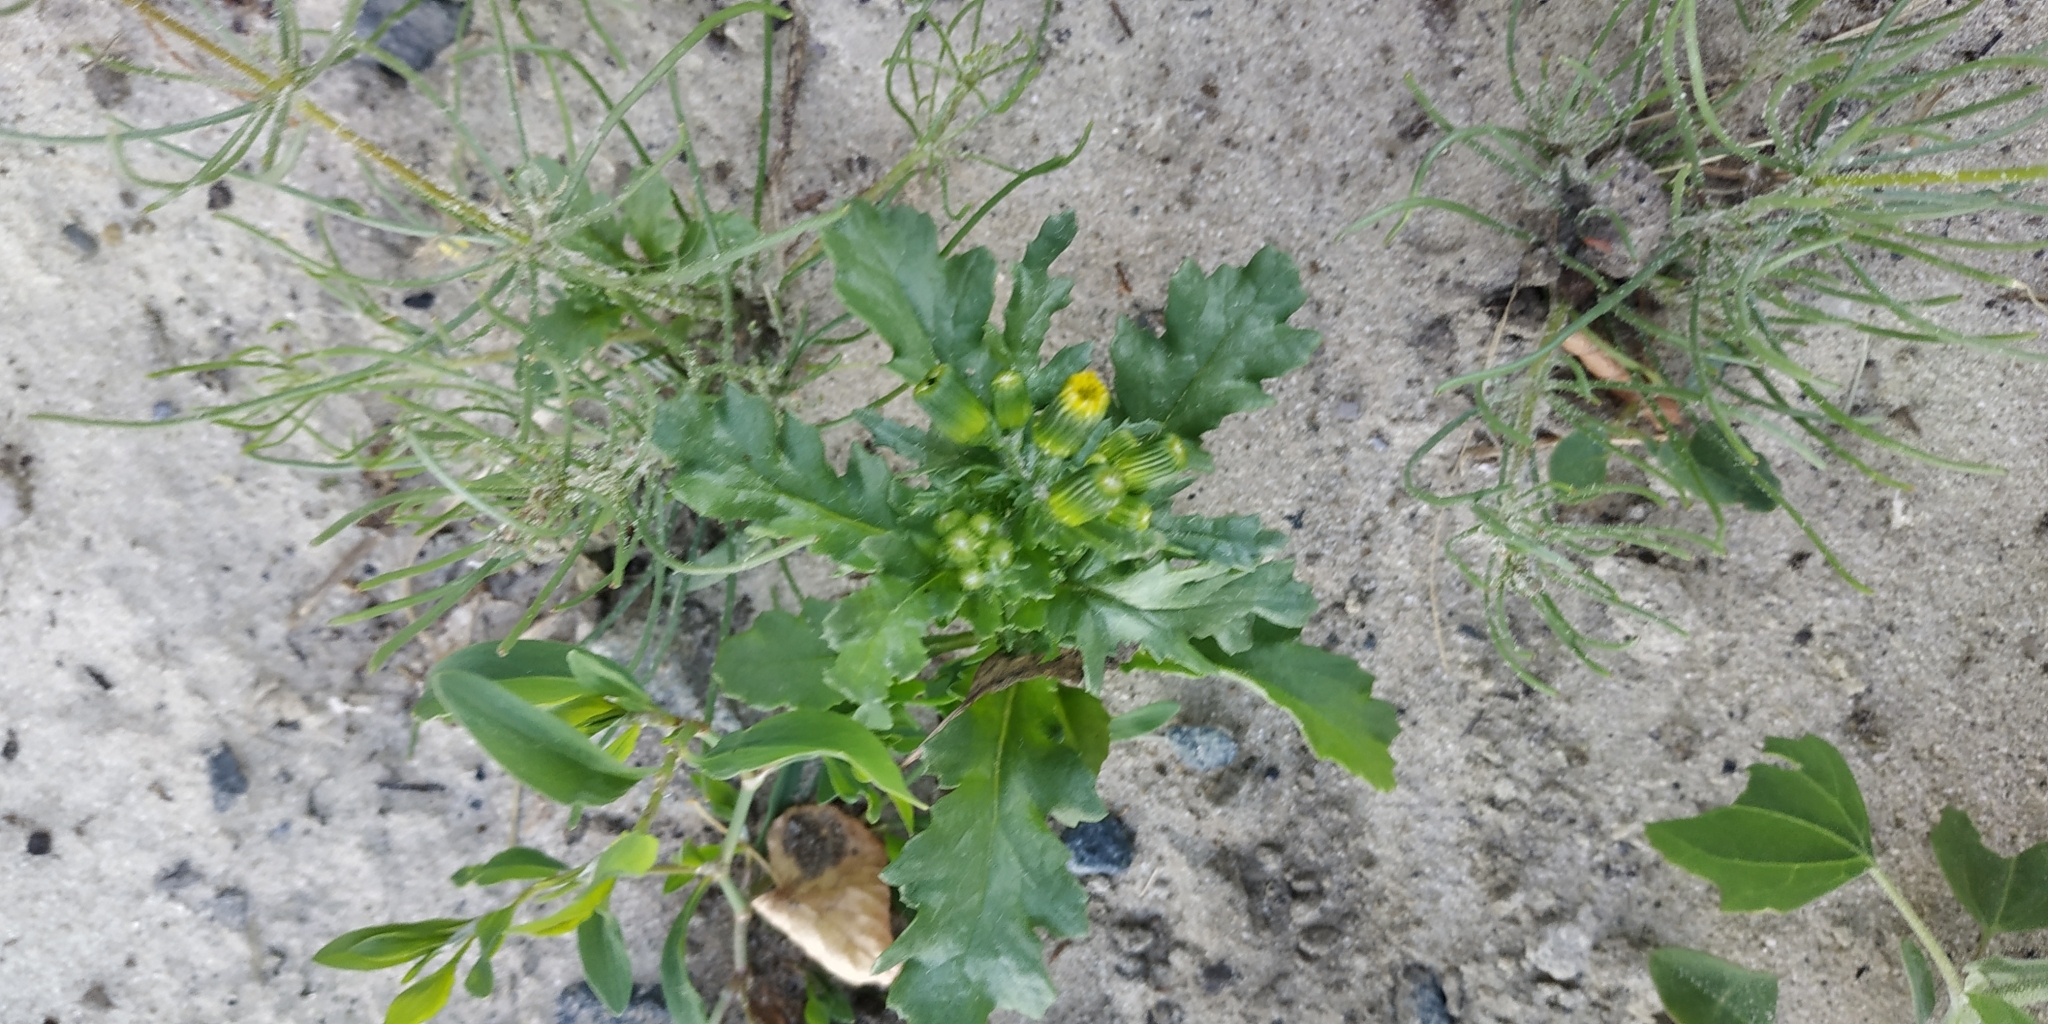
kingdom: Plantae
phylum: Tracheophyta
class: Magnoliopsida
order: Asterales
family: Asteraceae
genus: Senecio
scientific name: Senecio vulgaris
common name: Old-man-in-the-spring
